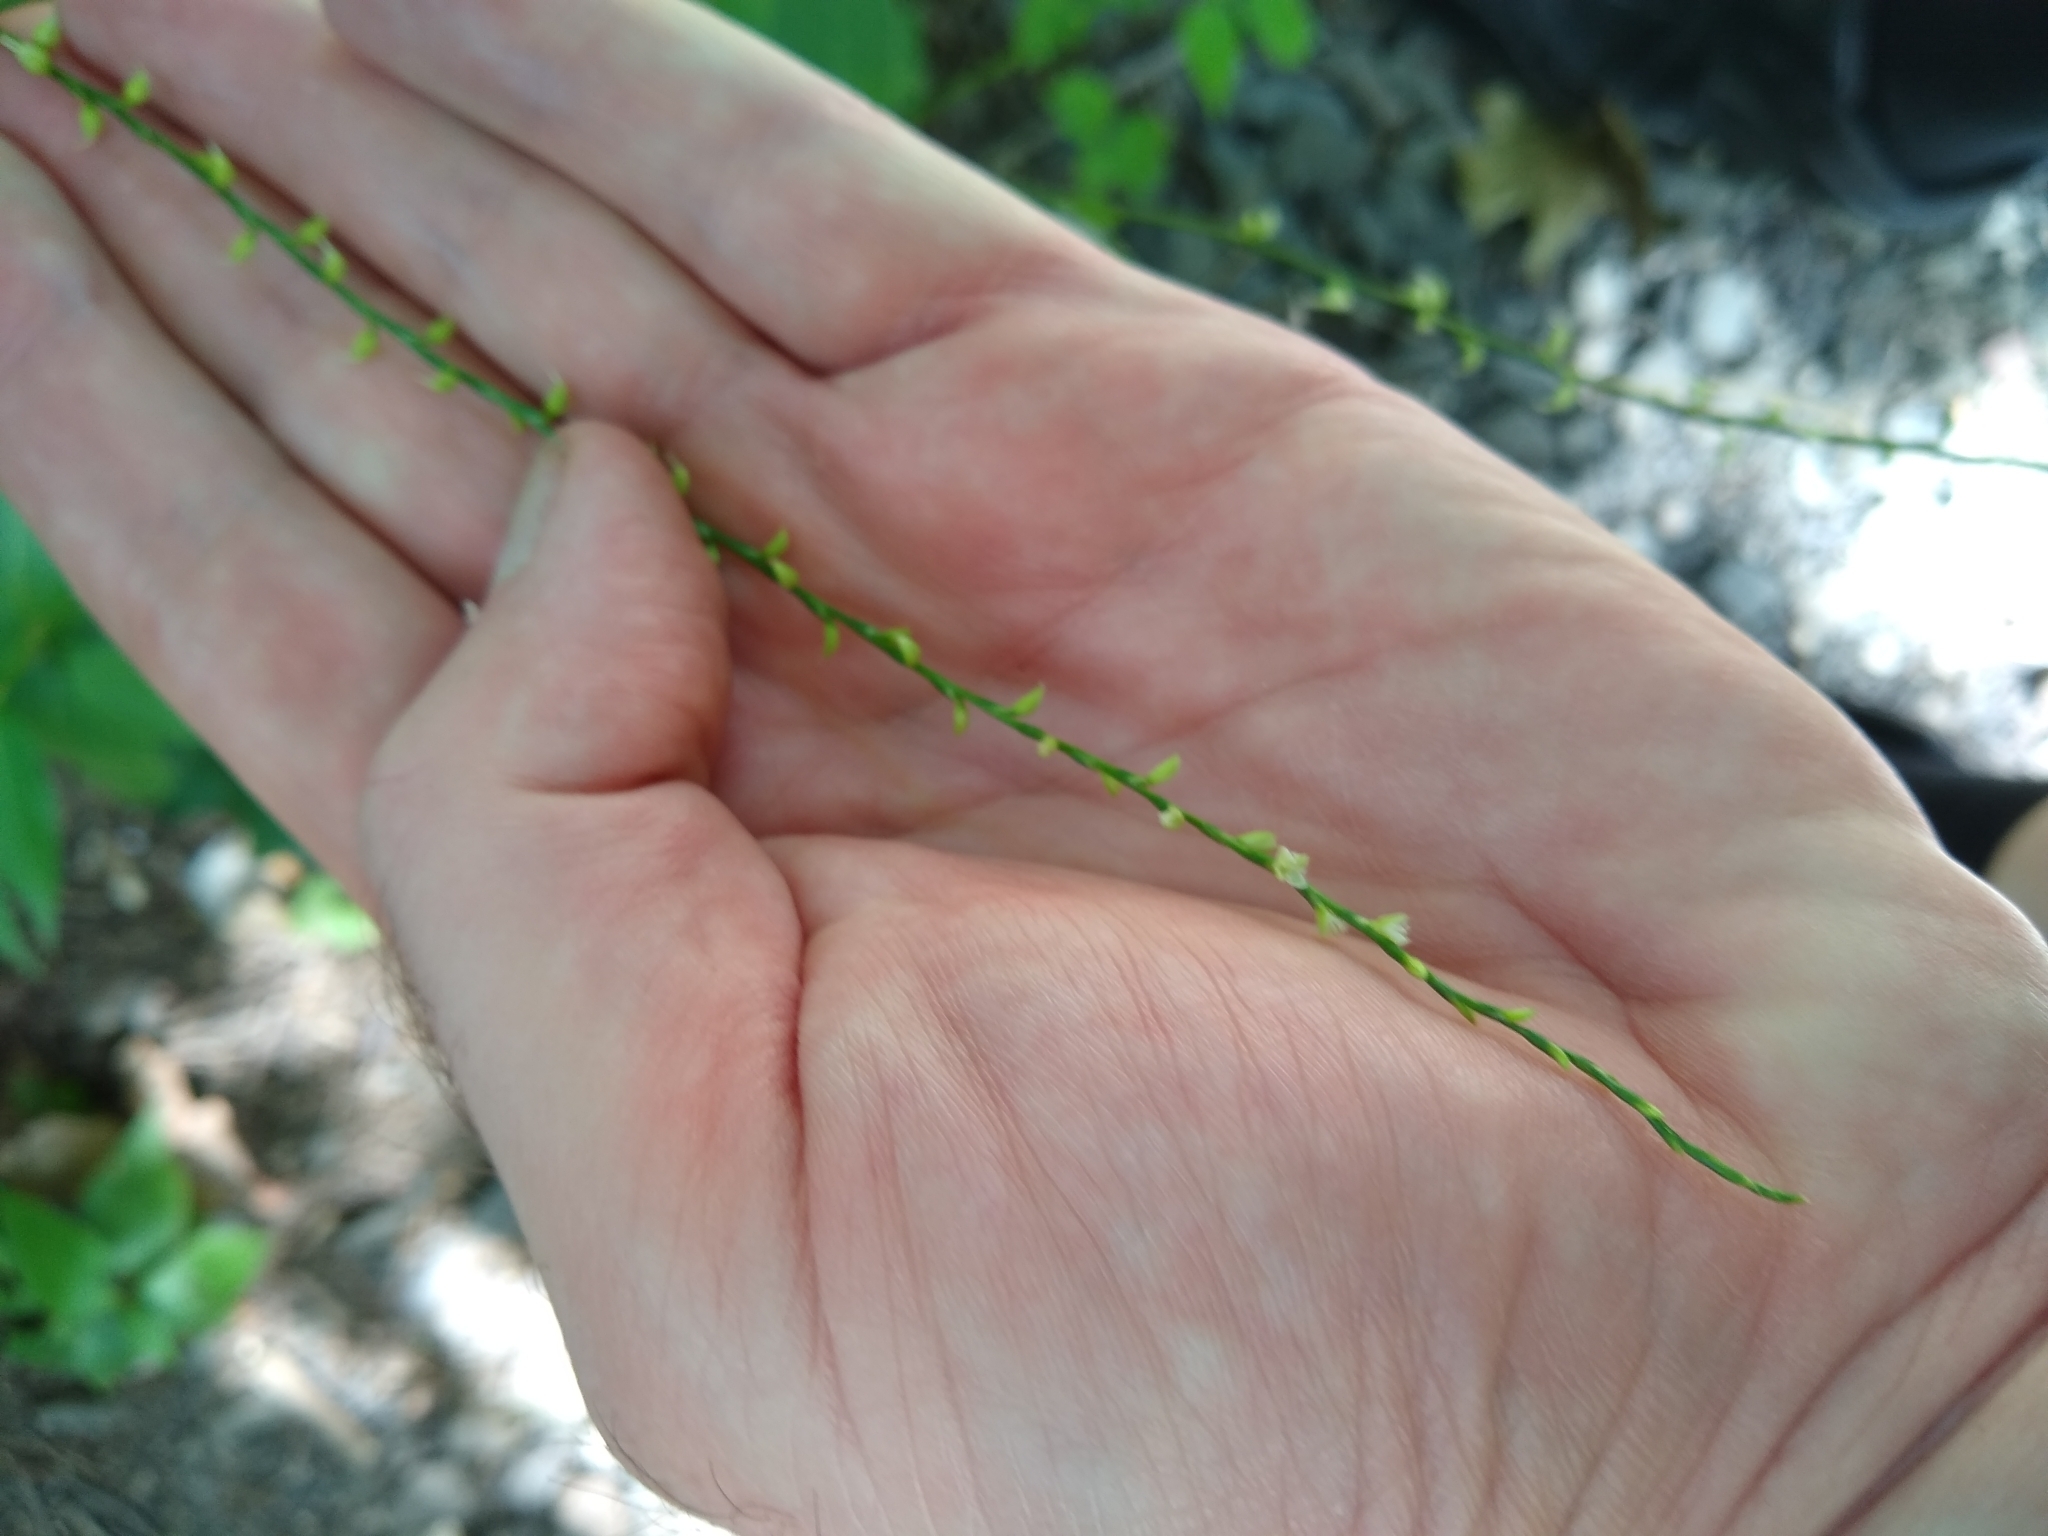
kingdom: Plantae
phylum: Tracheophyta
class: Magnoliopsida
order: Caryophyllales
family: Polygonaceae
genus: Persicaria
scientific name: Persicaria virginiana
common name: Jumpseed
